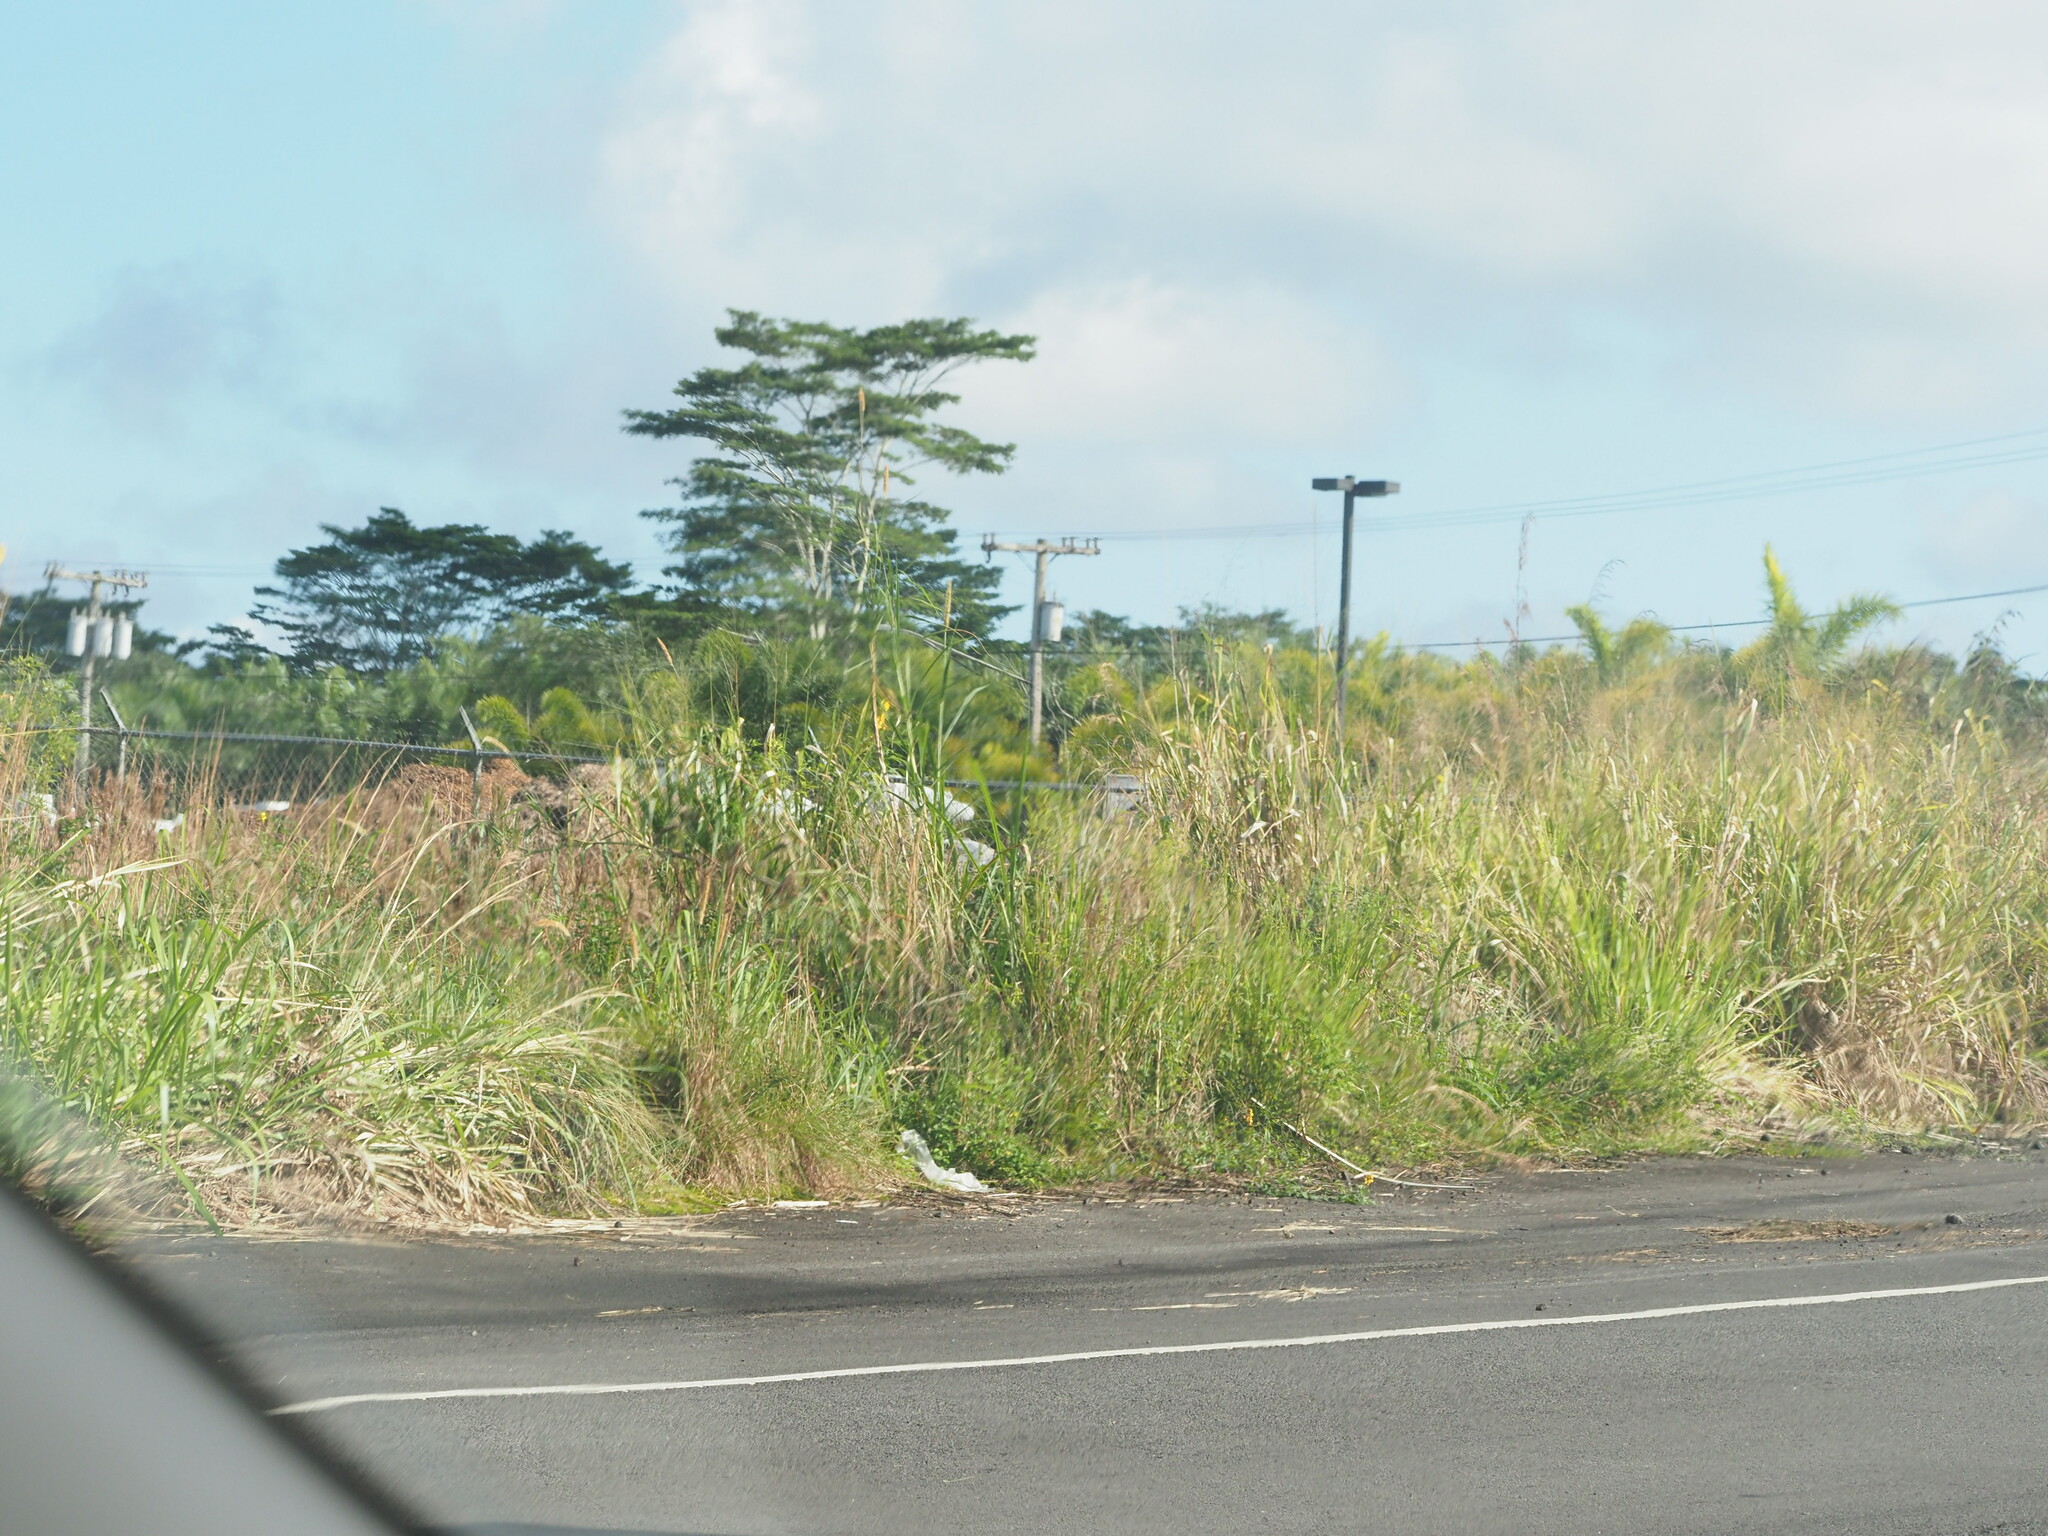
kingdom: Plantae
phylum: Tracheophyta
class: Liliopsida
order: Poales
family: Poaceae
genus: Cenchrus
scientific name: Cenchrus purpureus
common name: Elephant grass
